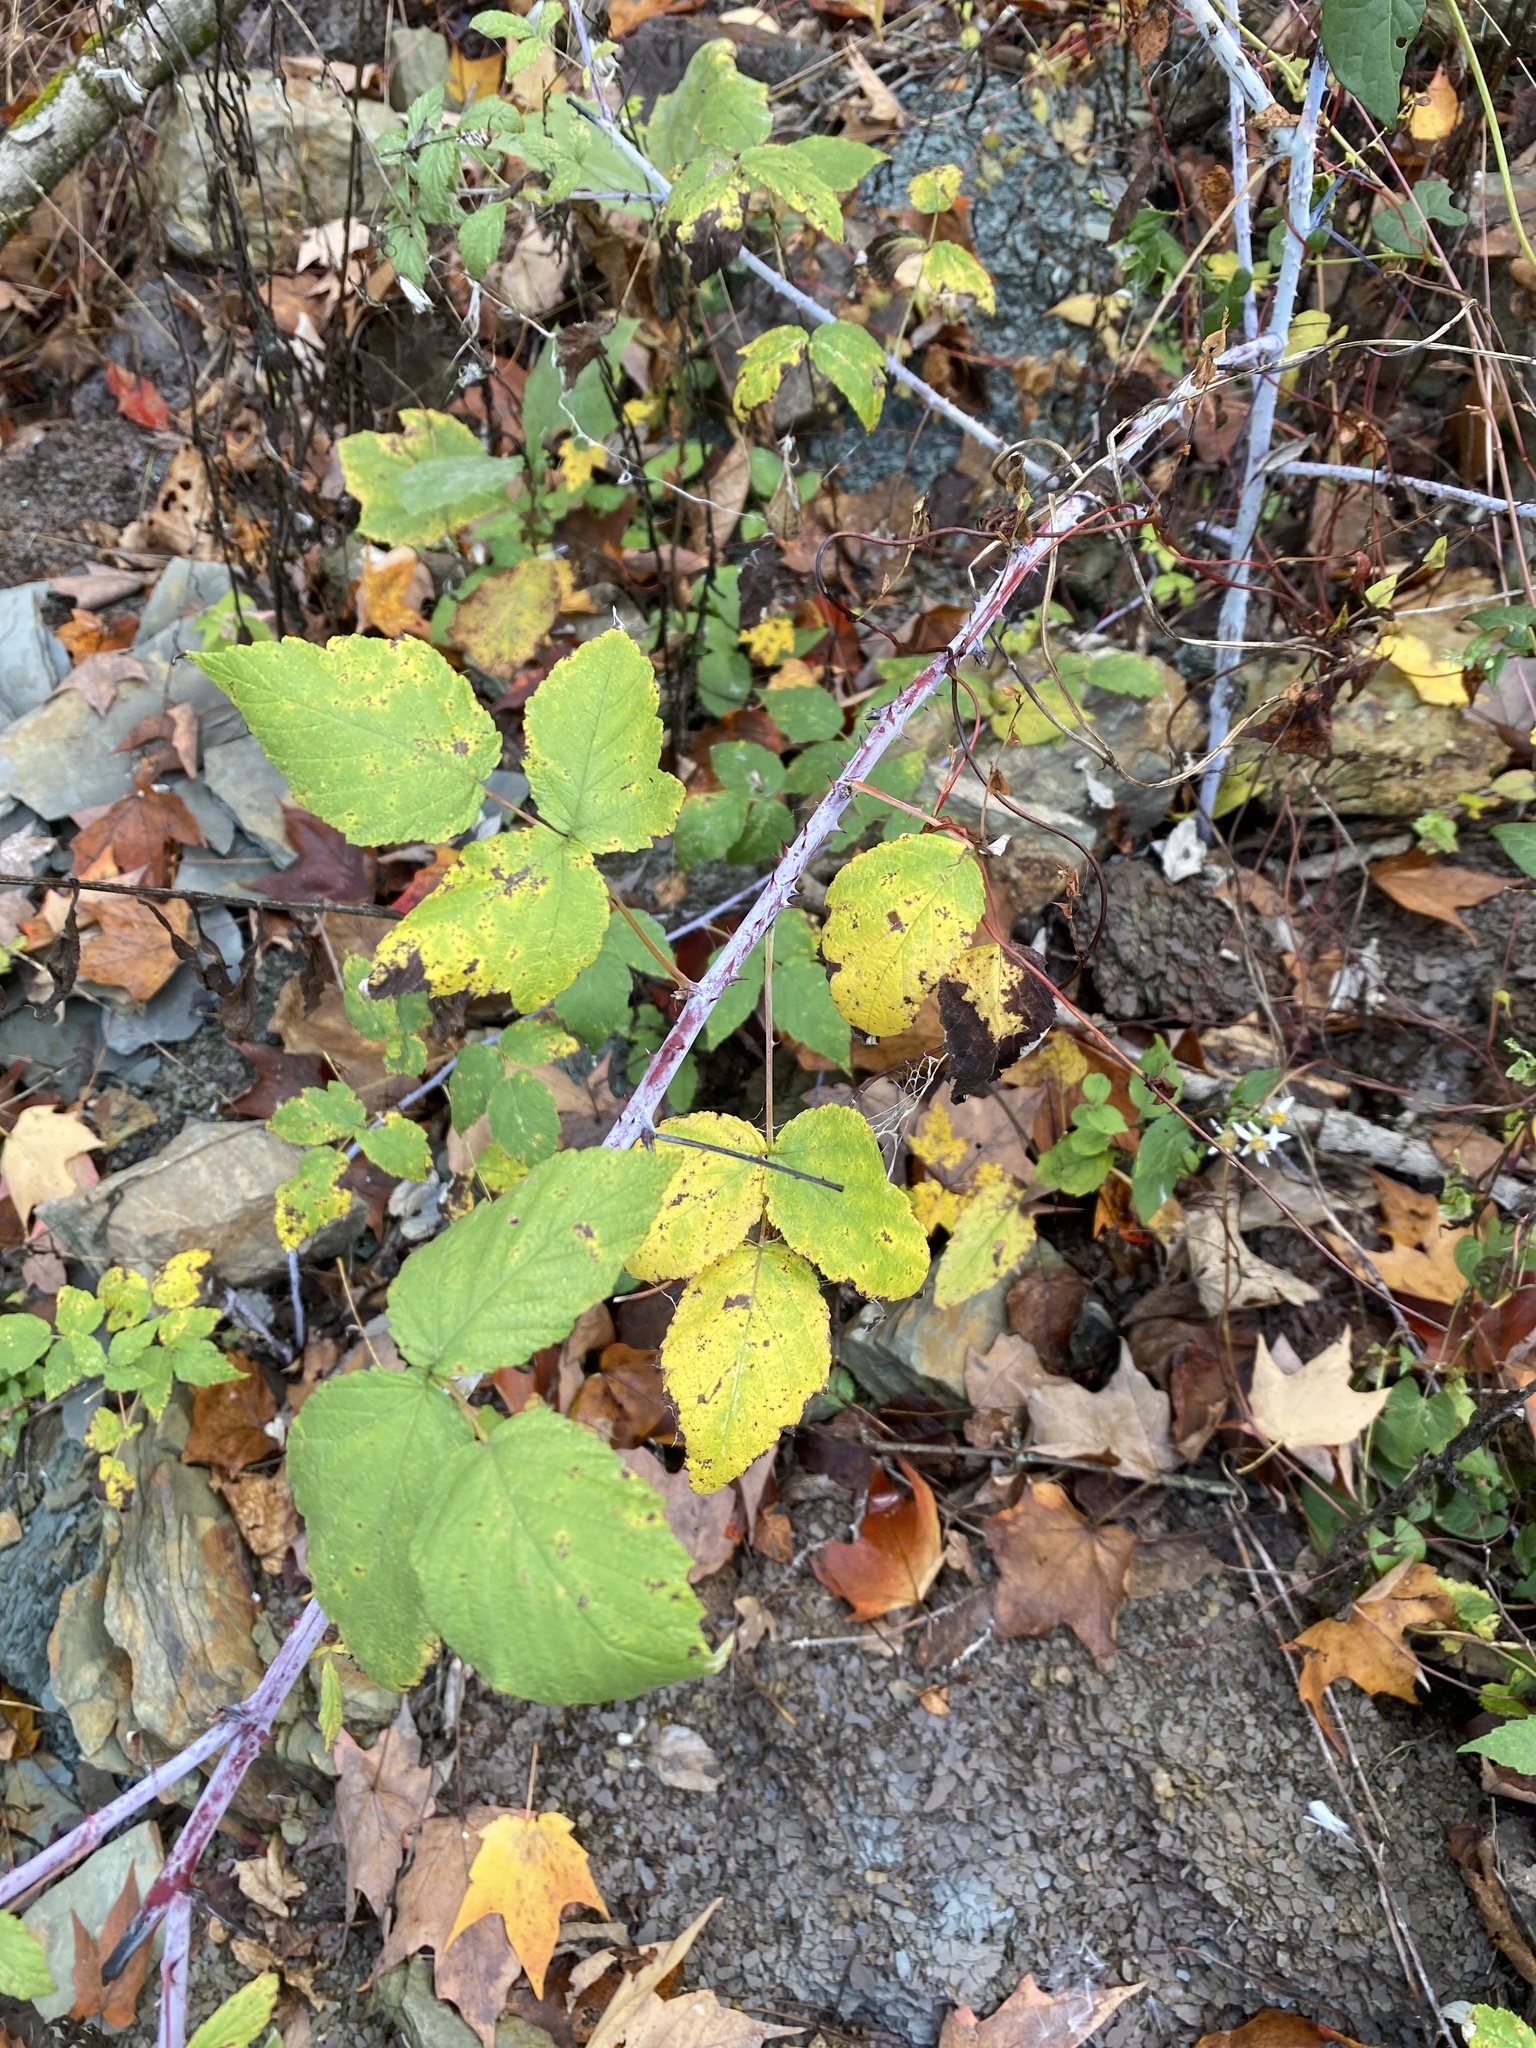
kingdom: Plantae
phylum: Tracheophyta
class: Magnoliopsida
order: Rosales
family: Rosaceae
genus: Rubus
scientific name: Rubus occidentalis
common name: Black raspberry
